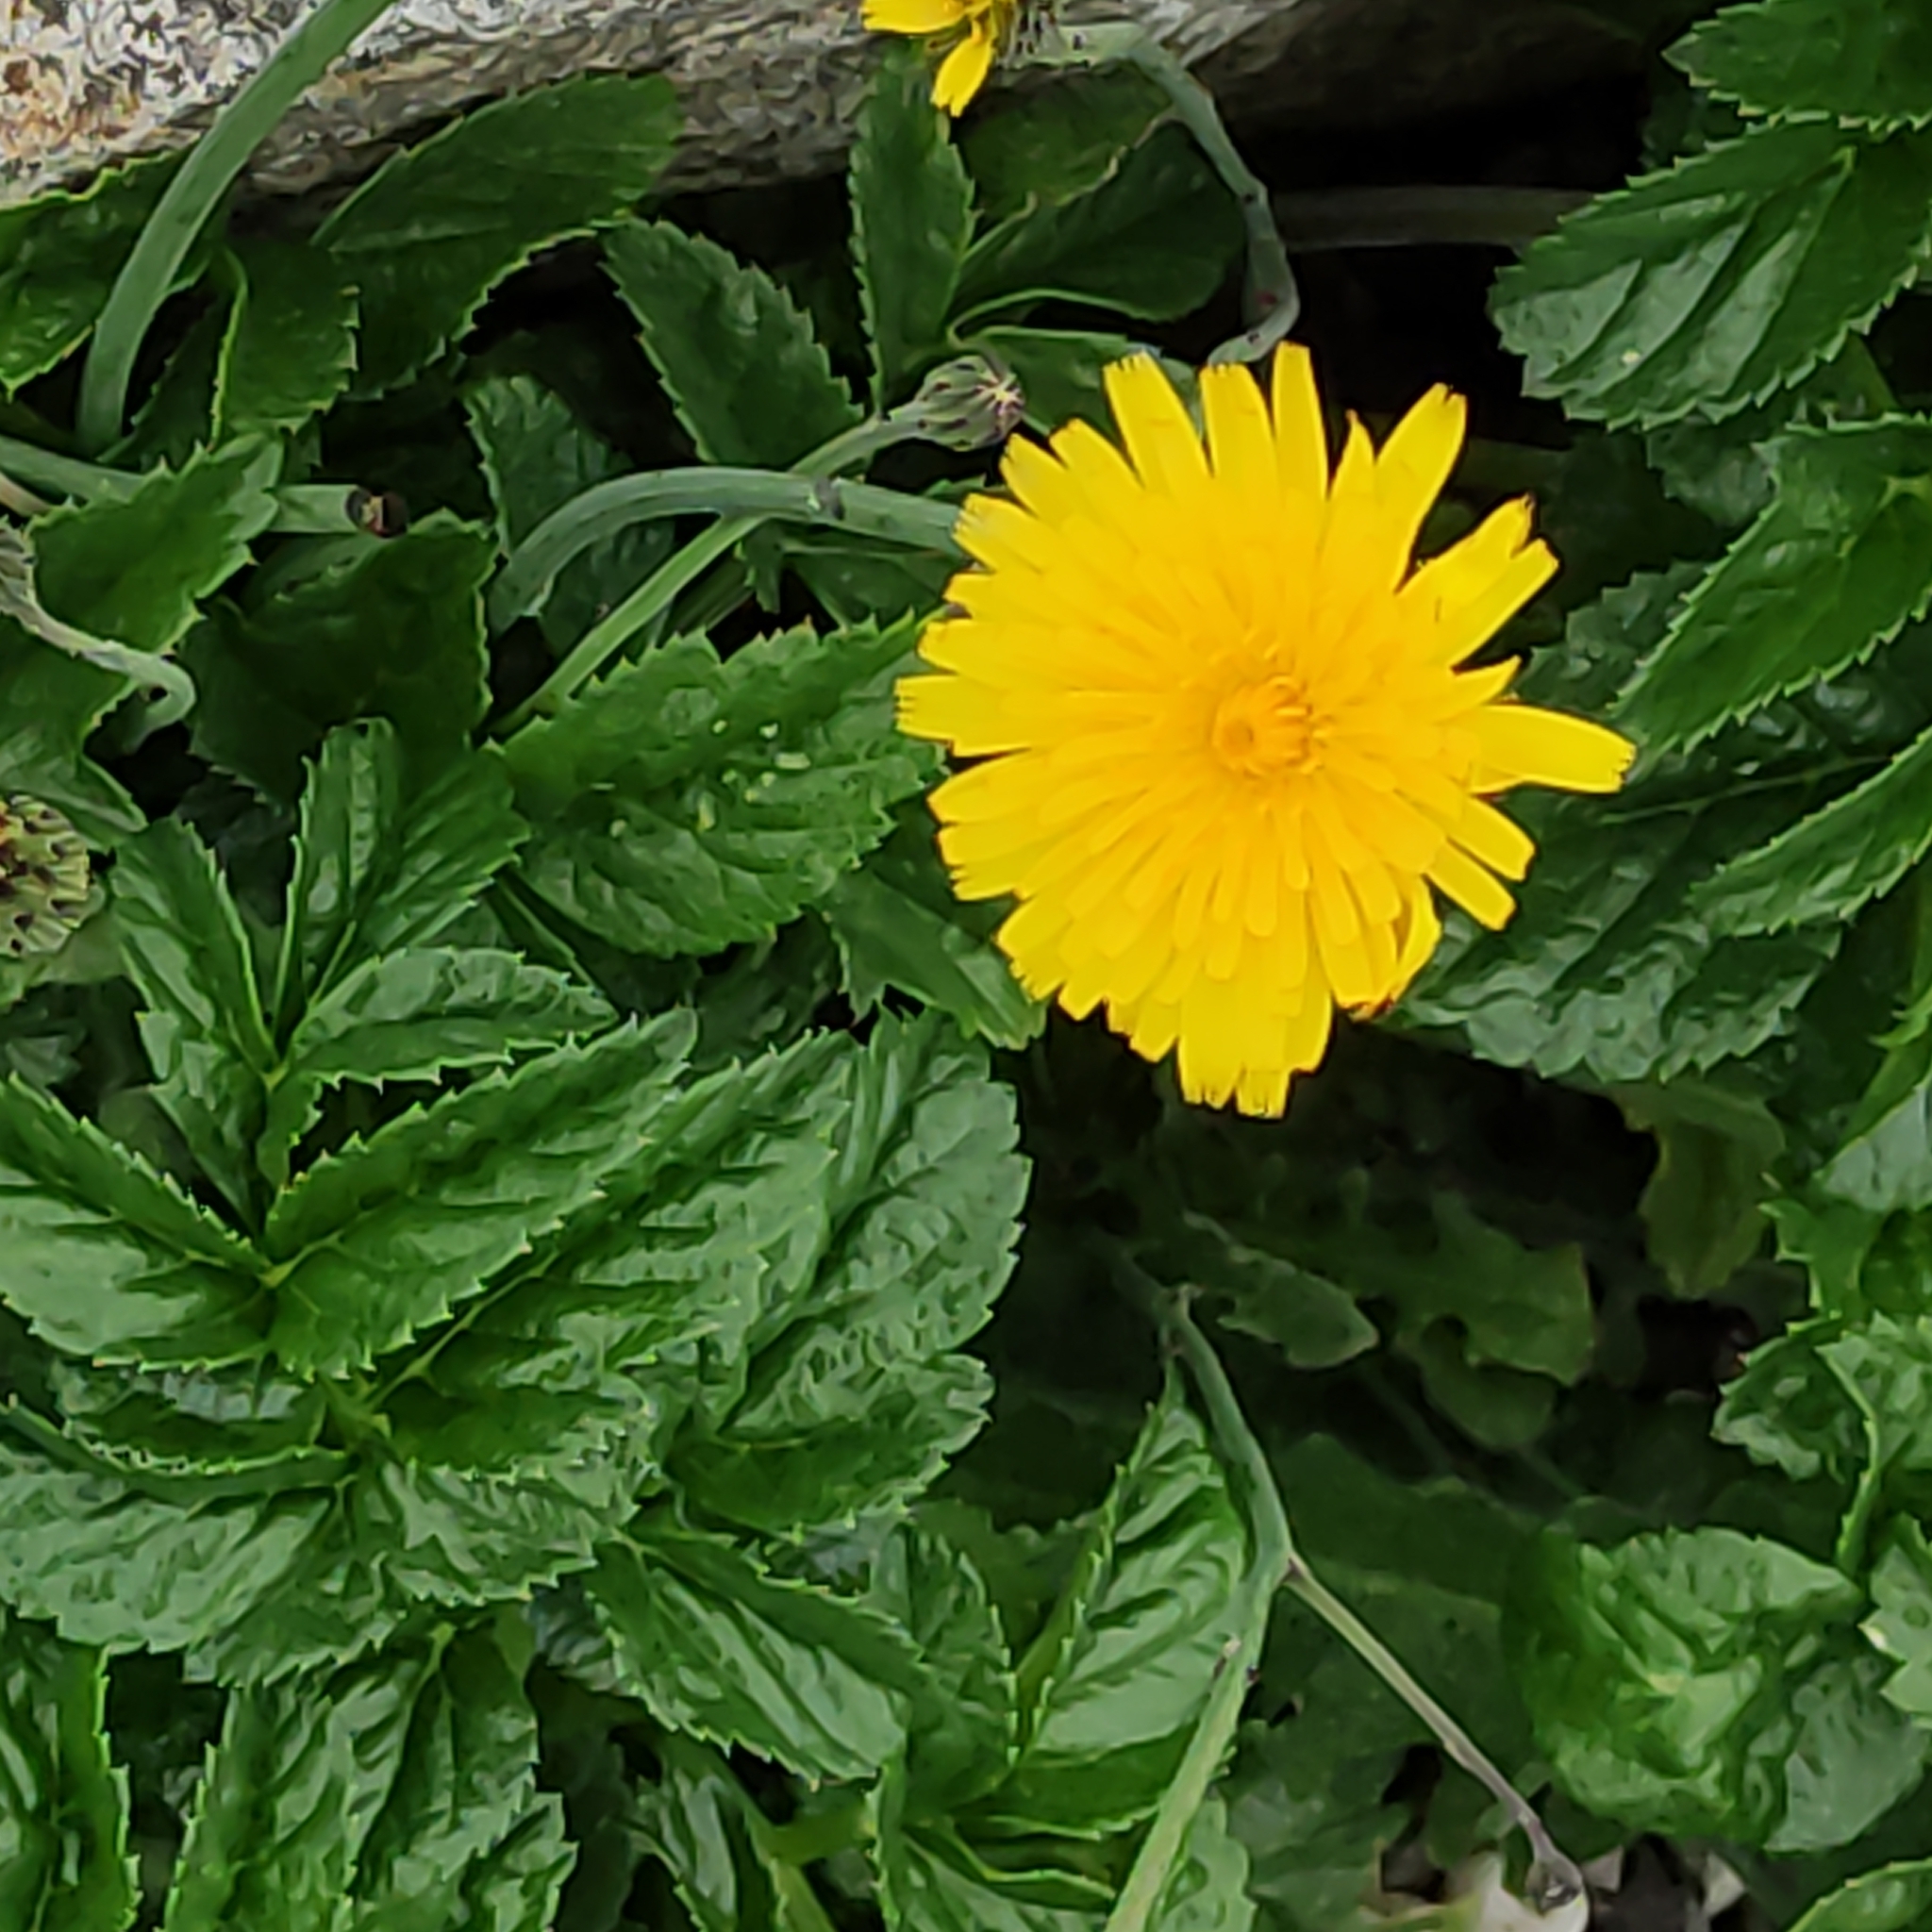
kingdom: Plantae
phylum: Tracheophyta
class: Magnoliopsida
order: Apiales
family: Apiaceae
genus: Angelica
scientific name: Angelica pachycarpa
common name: Portuguese angelica
